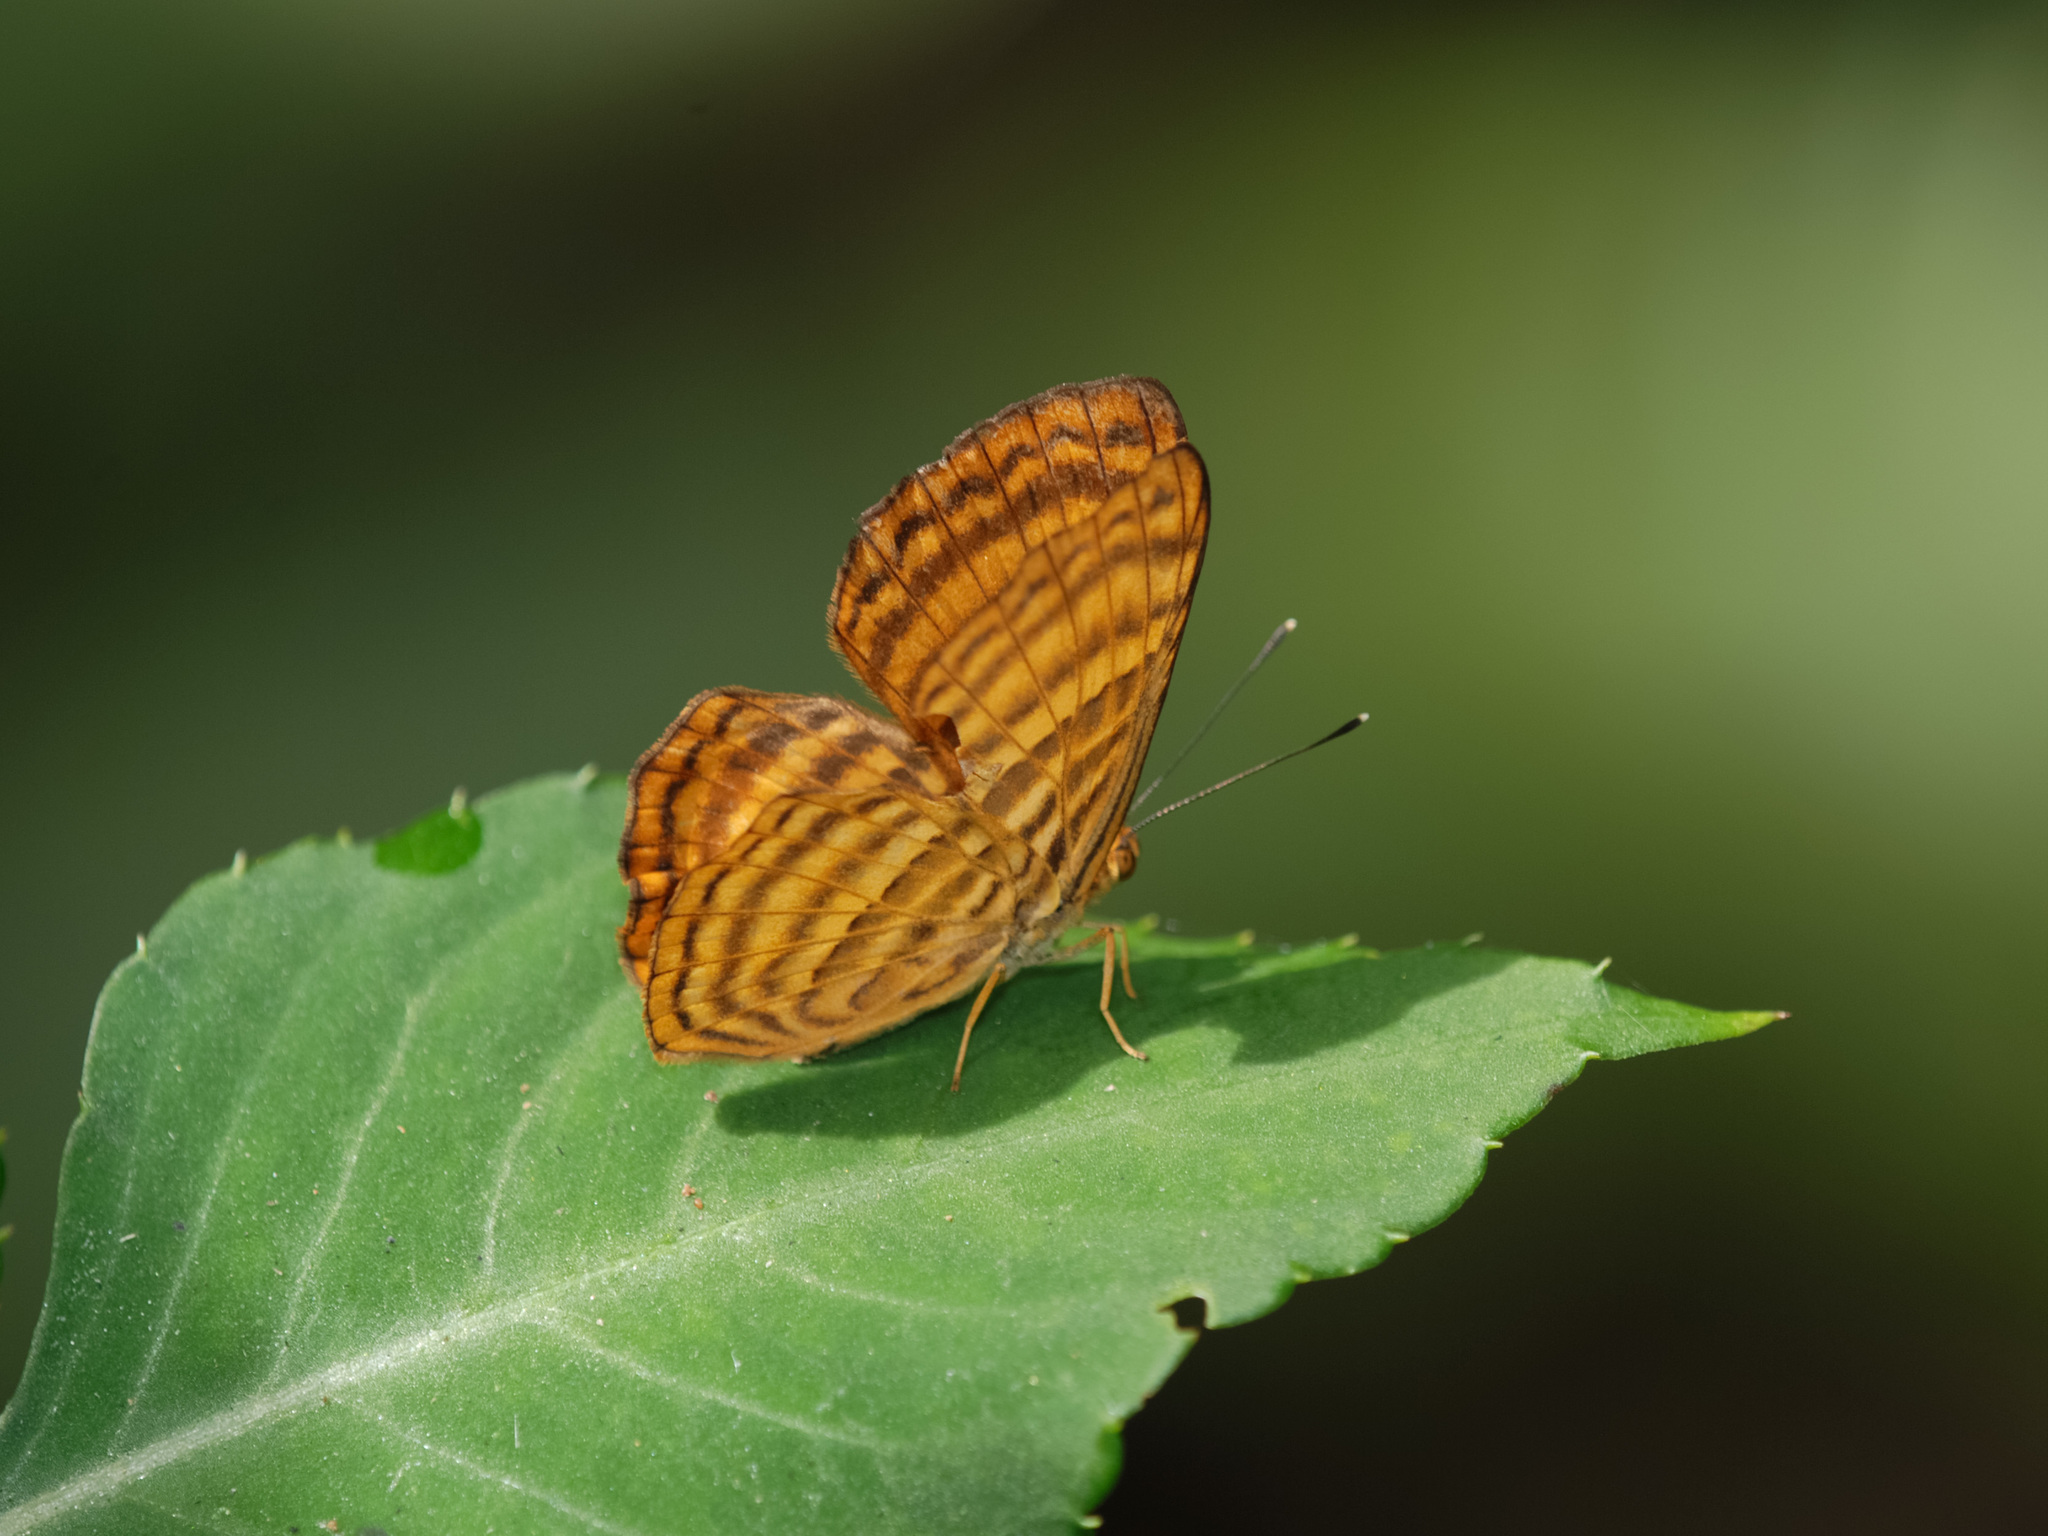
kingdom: Animalia
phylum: Arthropoda
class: Insecta
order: Lepidoptera
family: Riodinidae
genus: Zemeros
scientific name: Zemeros emesoides
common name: Malay punchinello
